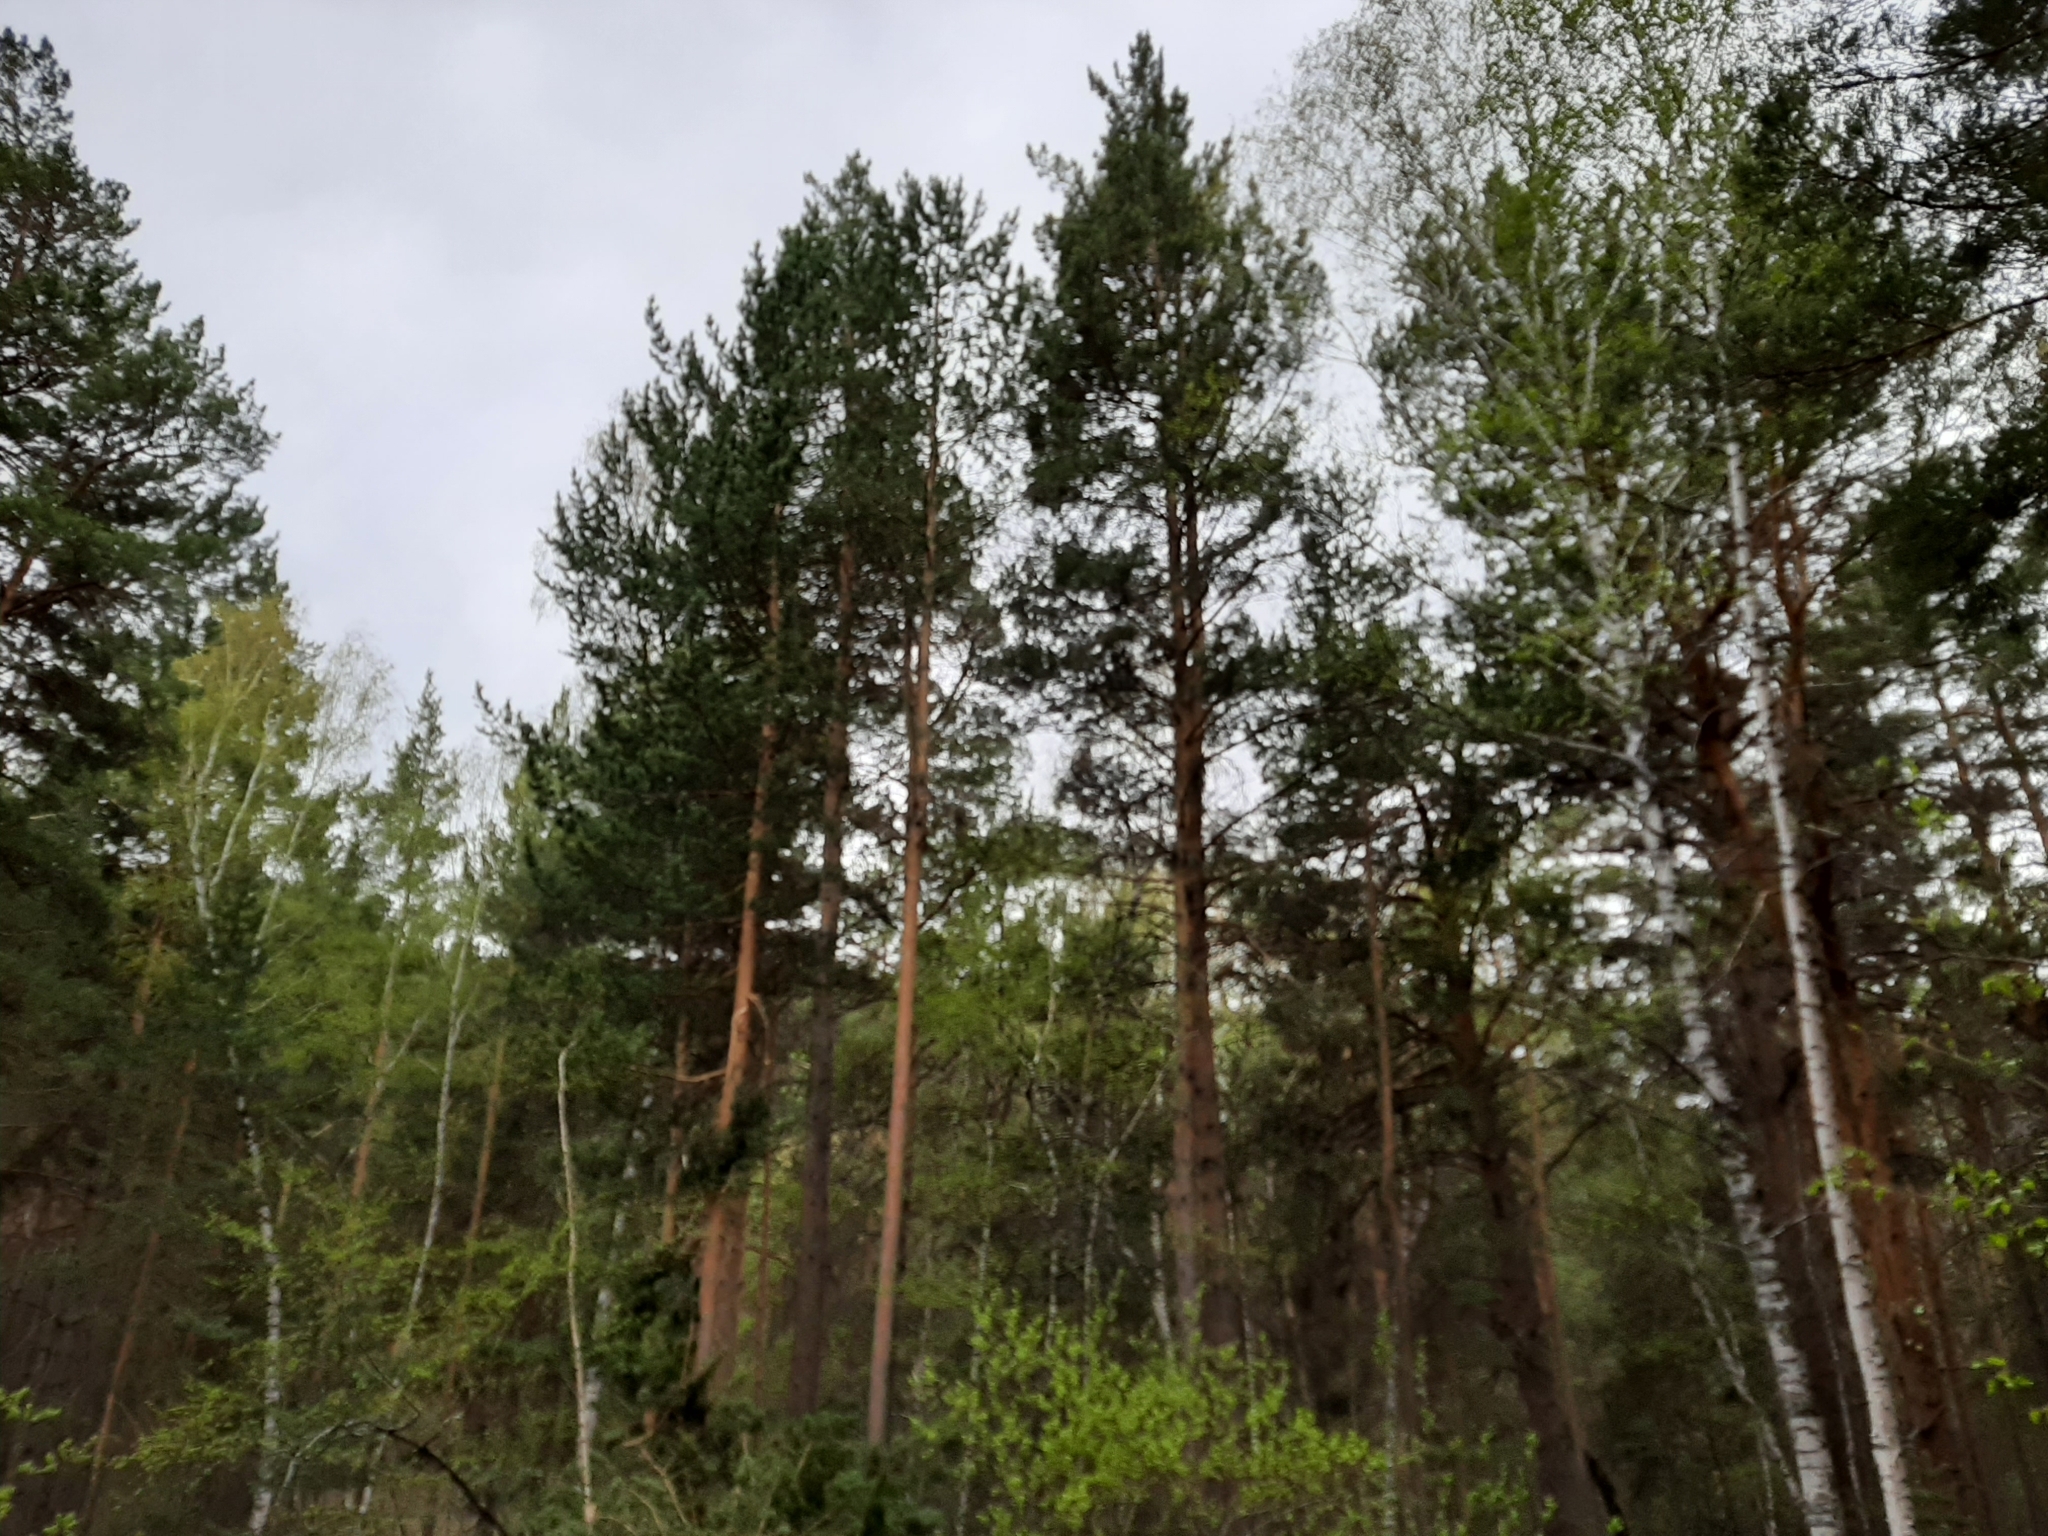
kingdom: Plantae
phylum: Tracheophyta
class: Pinopsida
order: Pinales
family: Pinaceae
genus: Pinus
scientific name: Pinus sylvestris
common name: Scots pine
